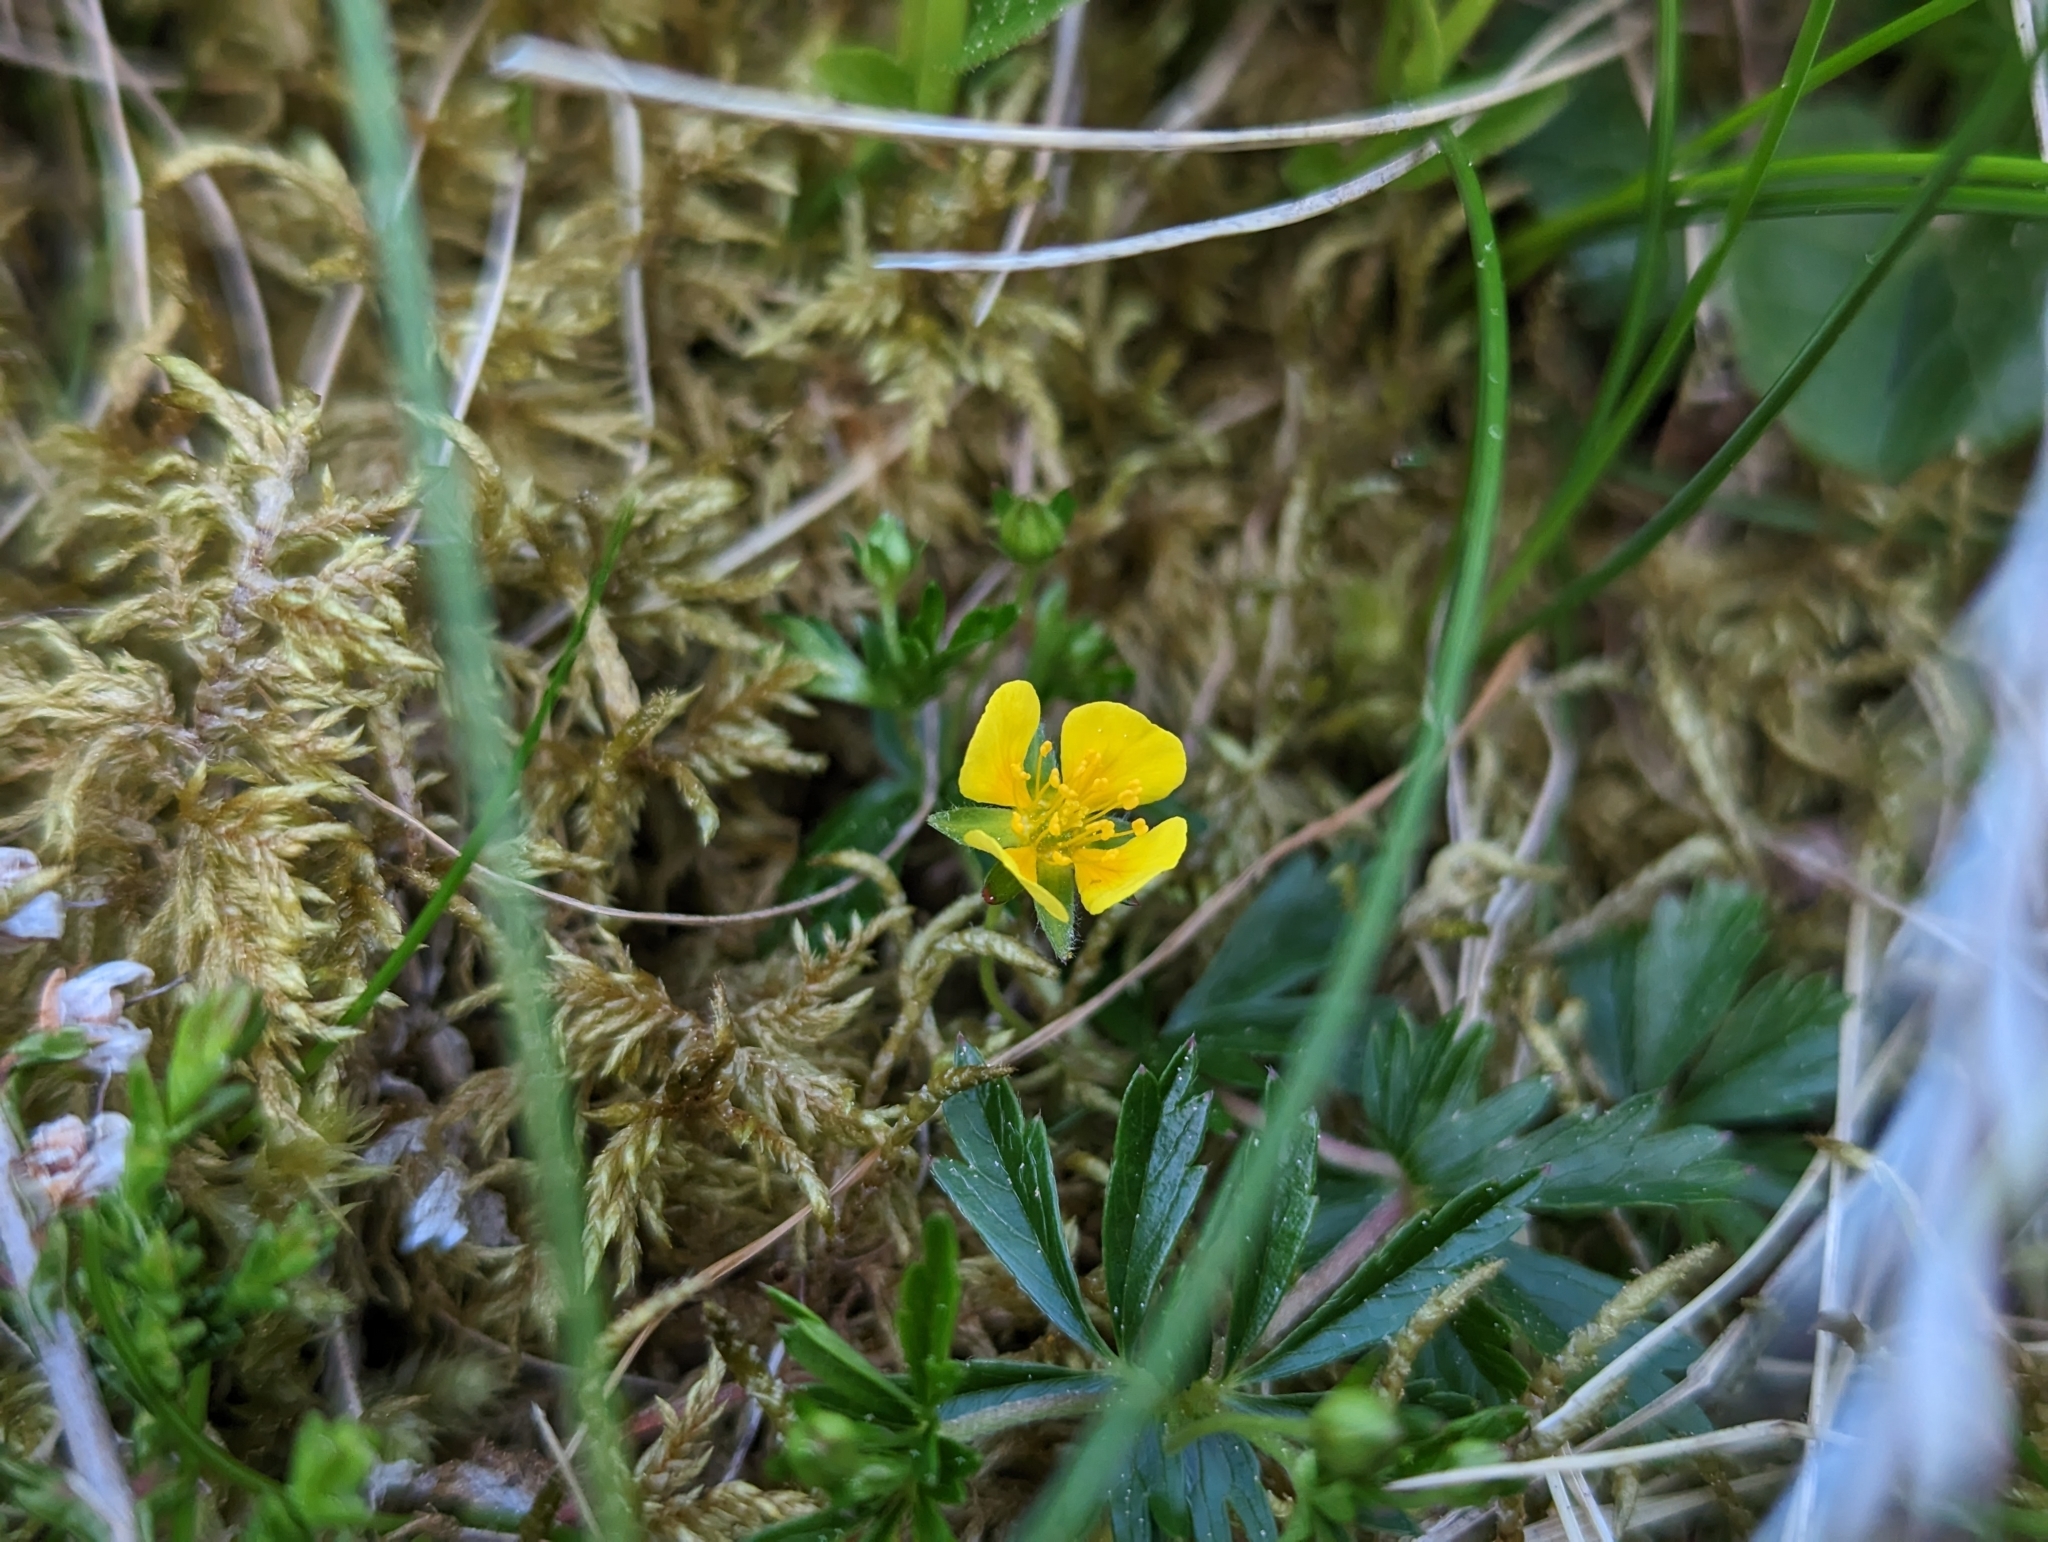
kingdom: Plantae
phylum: Tracheophyta
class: Magnoliopsida
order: Rosales
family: Rosaceae
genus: Potentilla
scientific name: Potentilla erecta
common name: Tormentil
